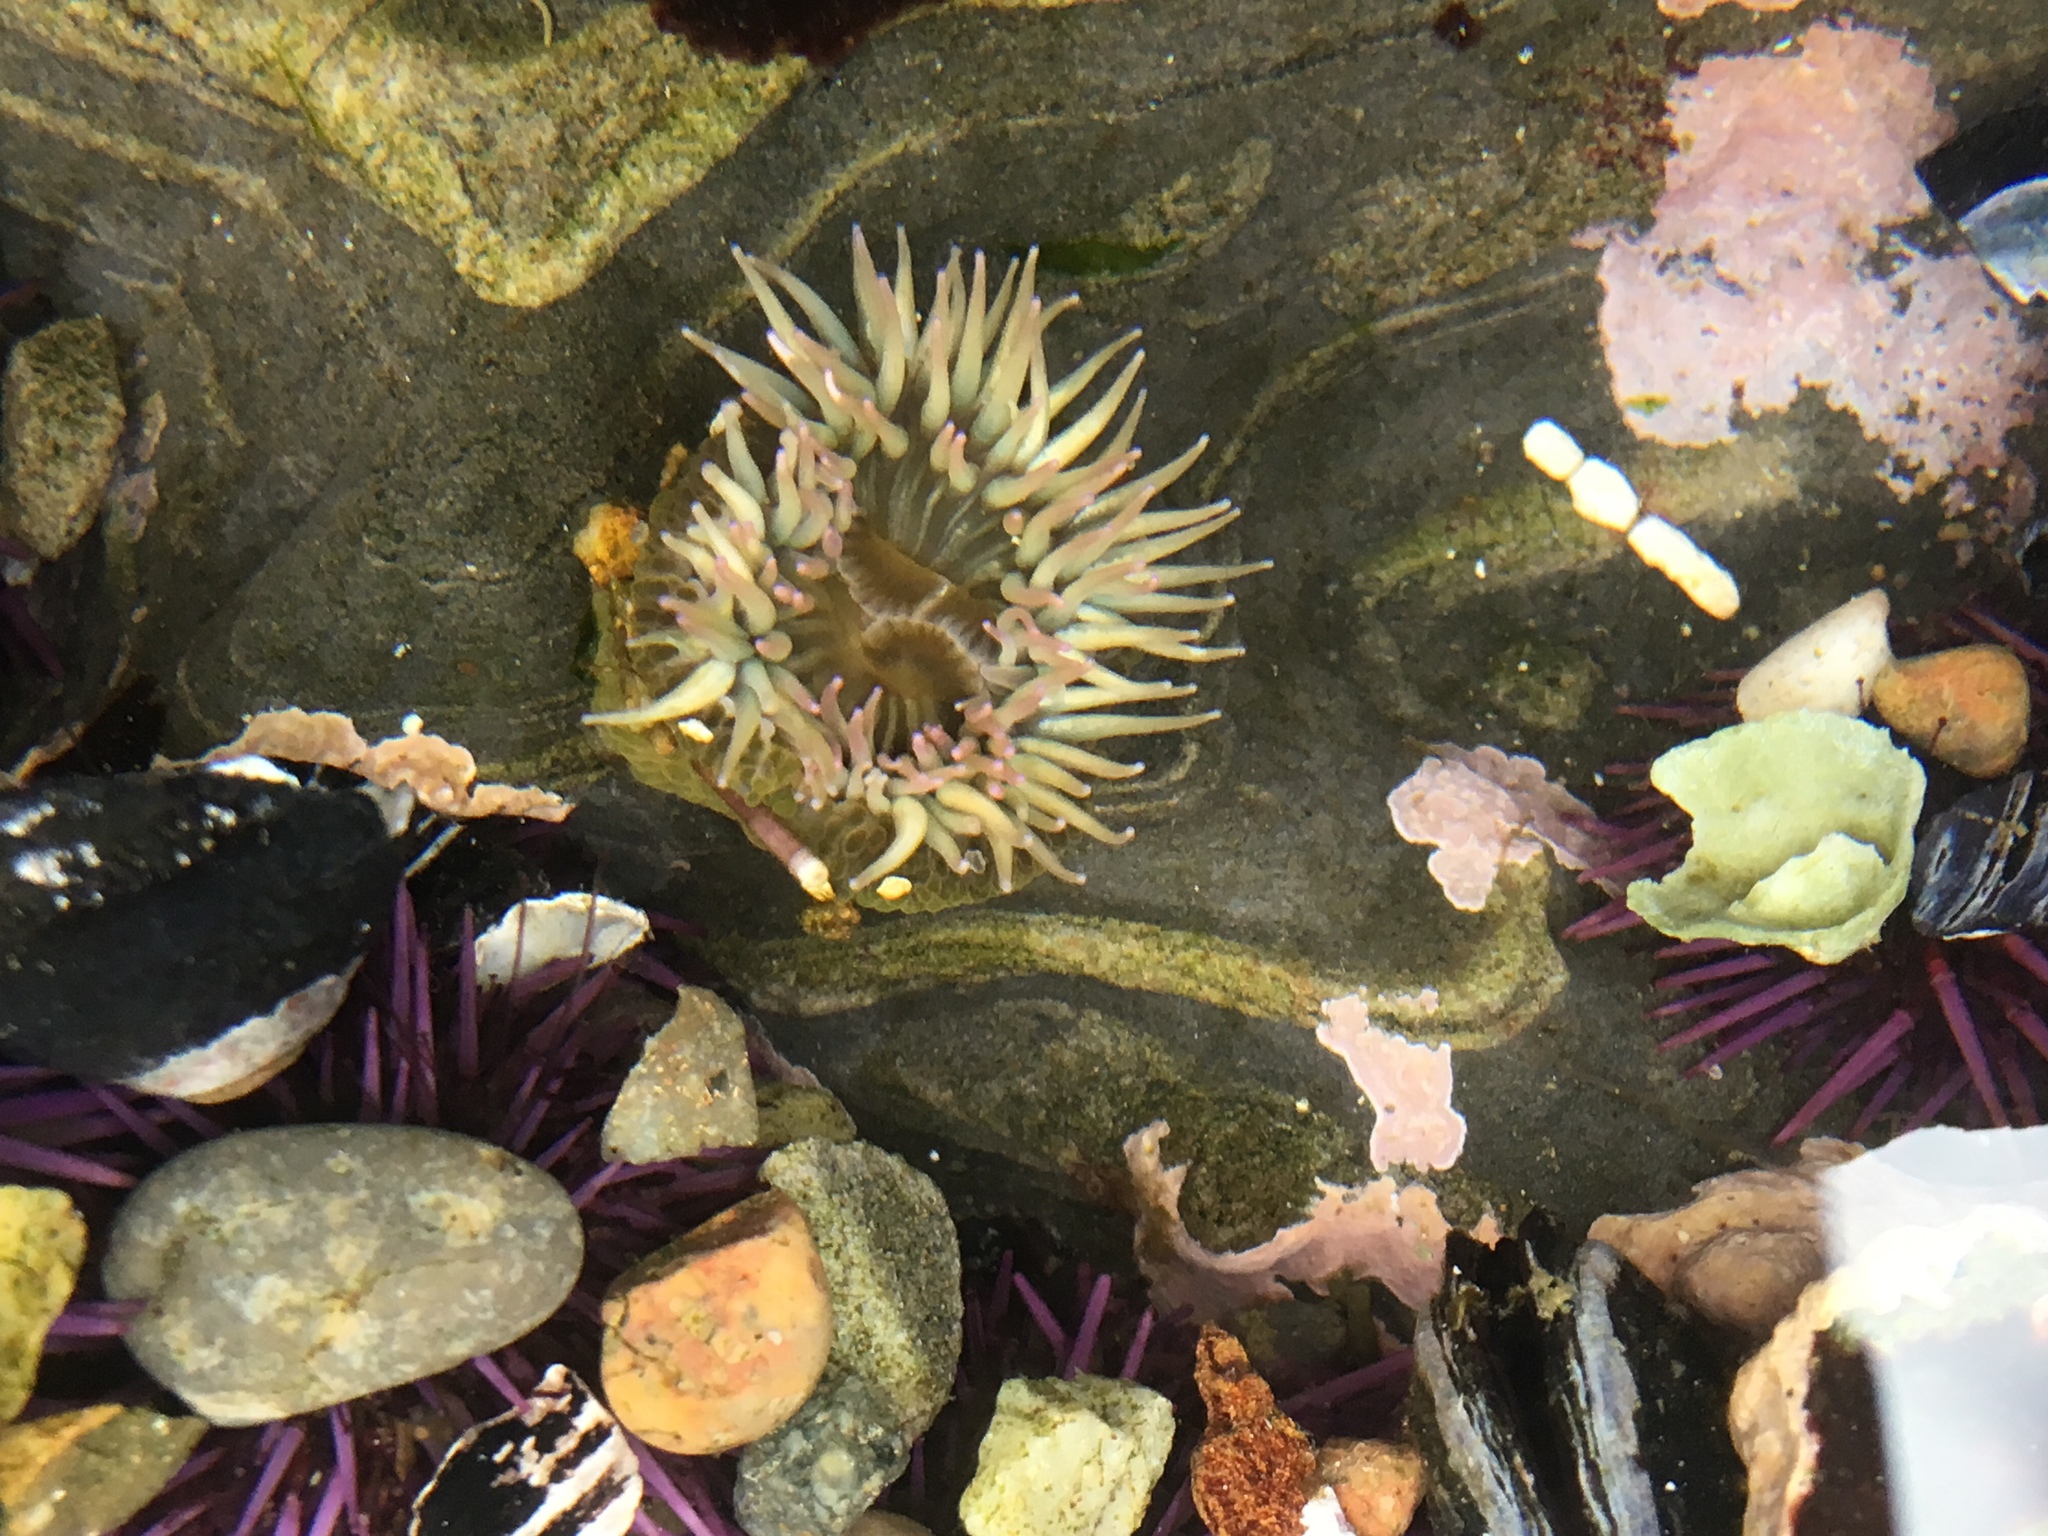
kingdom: Animalia
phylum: Cnidaria
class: Anthozoa
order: Actiniaria
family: Actiniidae
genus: Anthopleura
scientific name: Anthopleura elegantissima
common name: Clonal anemone
